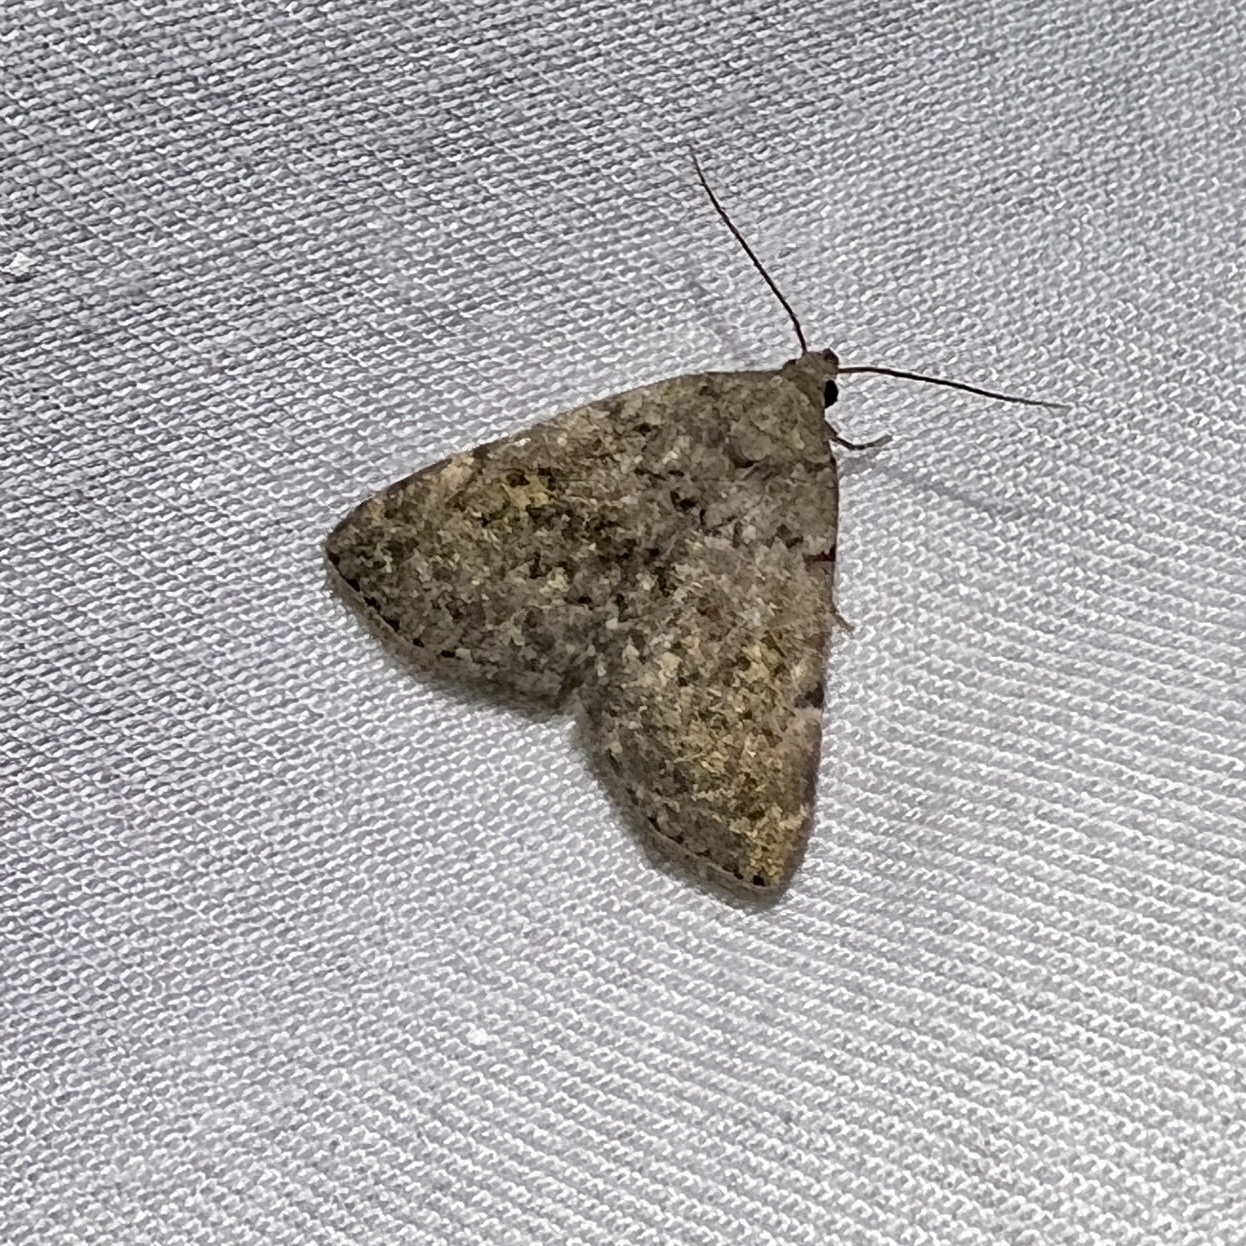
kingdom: Animalia
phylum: Arthropoda
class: Insecta
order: Lepidoptera
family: Erebidae
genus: Idia
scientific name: Idia aemula
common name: Common idia moth
